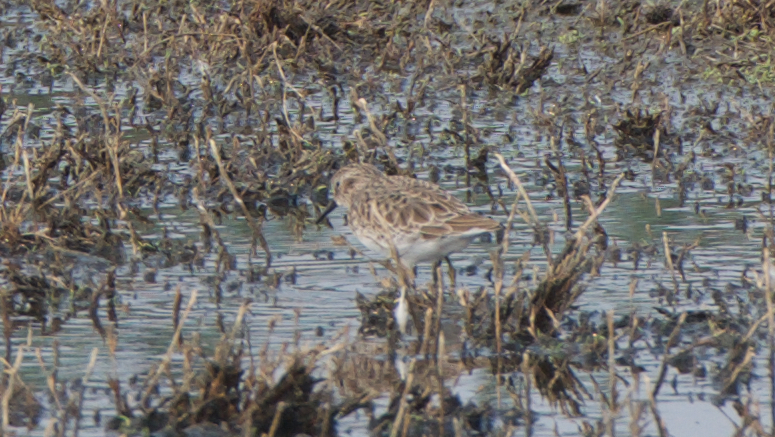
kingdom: Animalia
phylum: Chordata
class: Aves
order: Charadriiformes
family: Scolopacidae
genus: Calidris
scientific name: Calidris minutilla
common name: Least sandpiper
